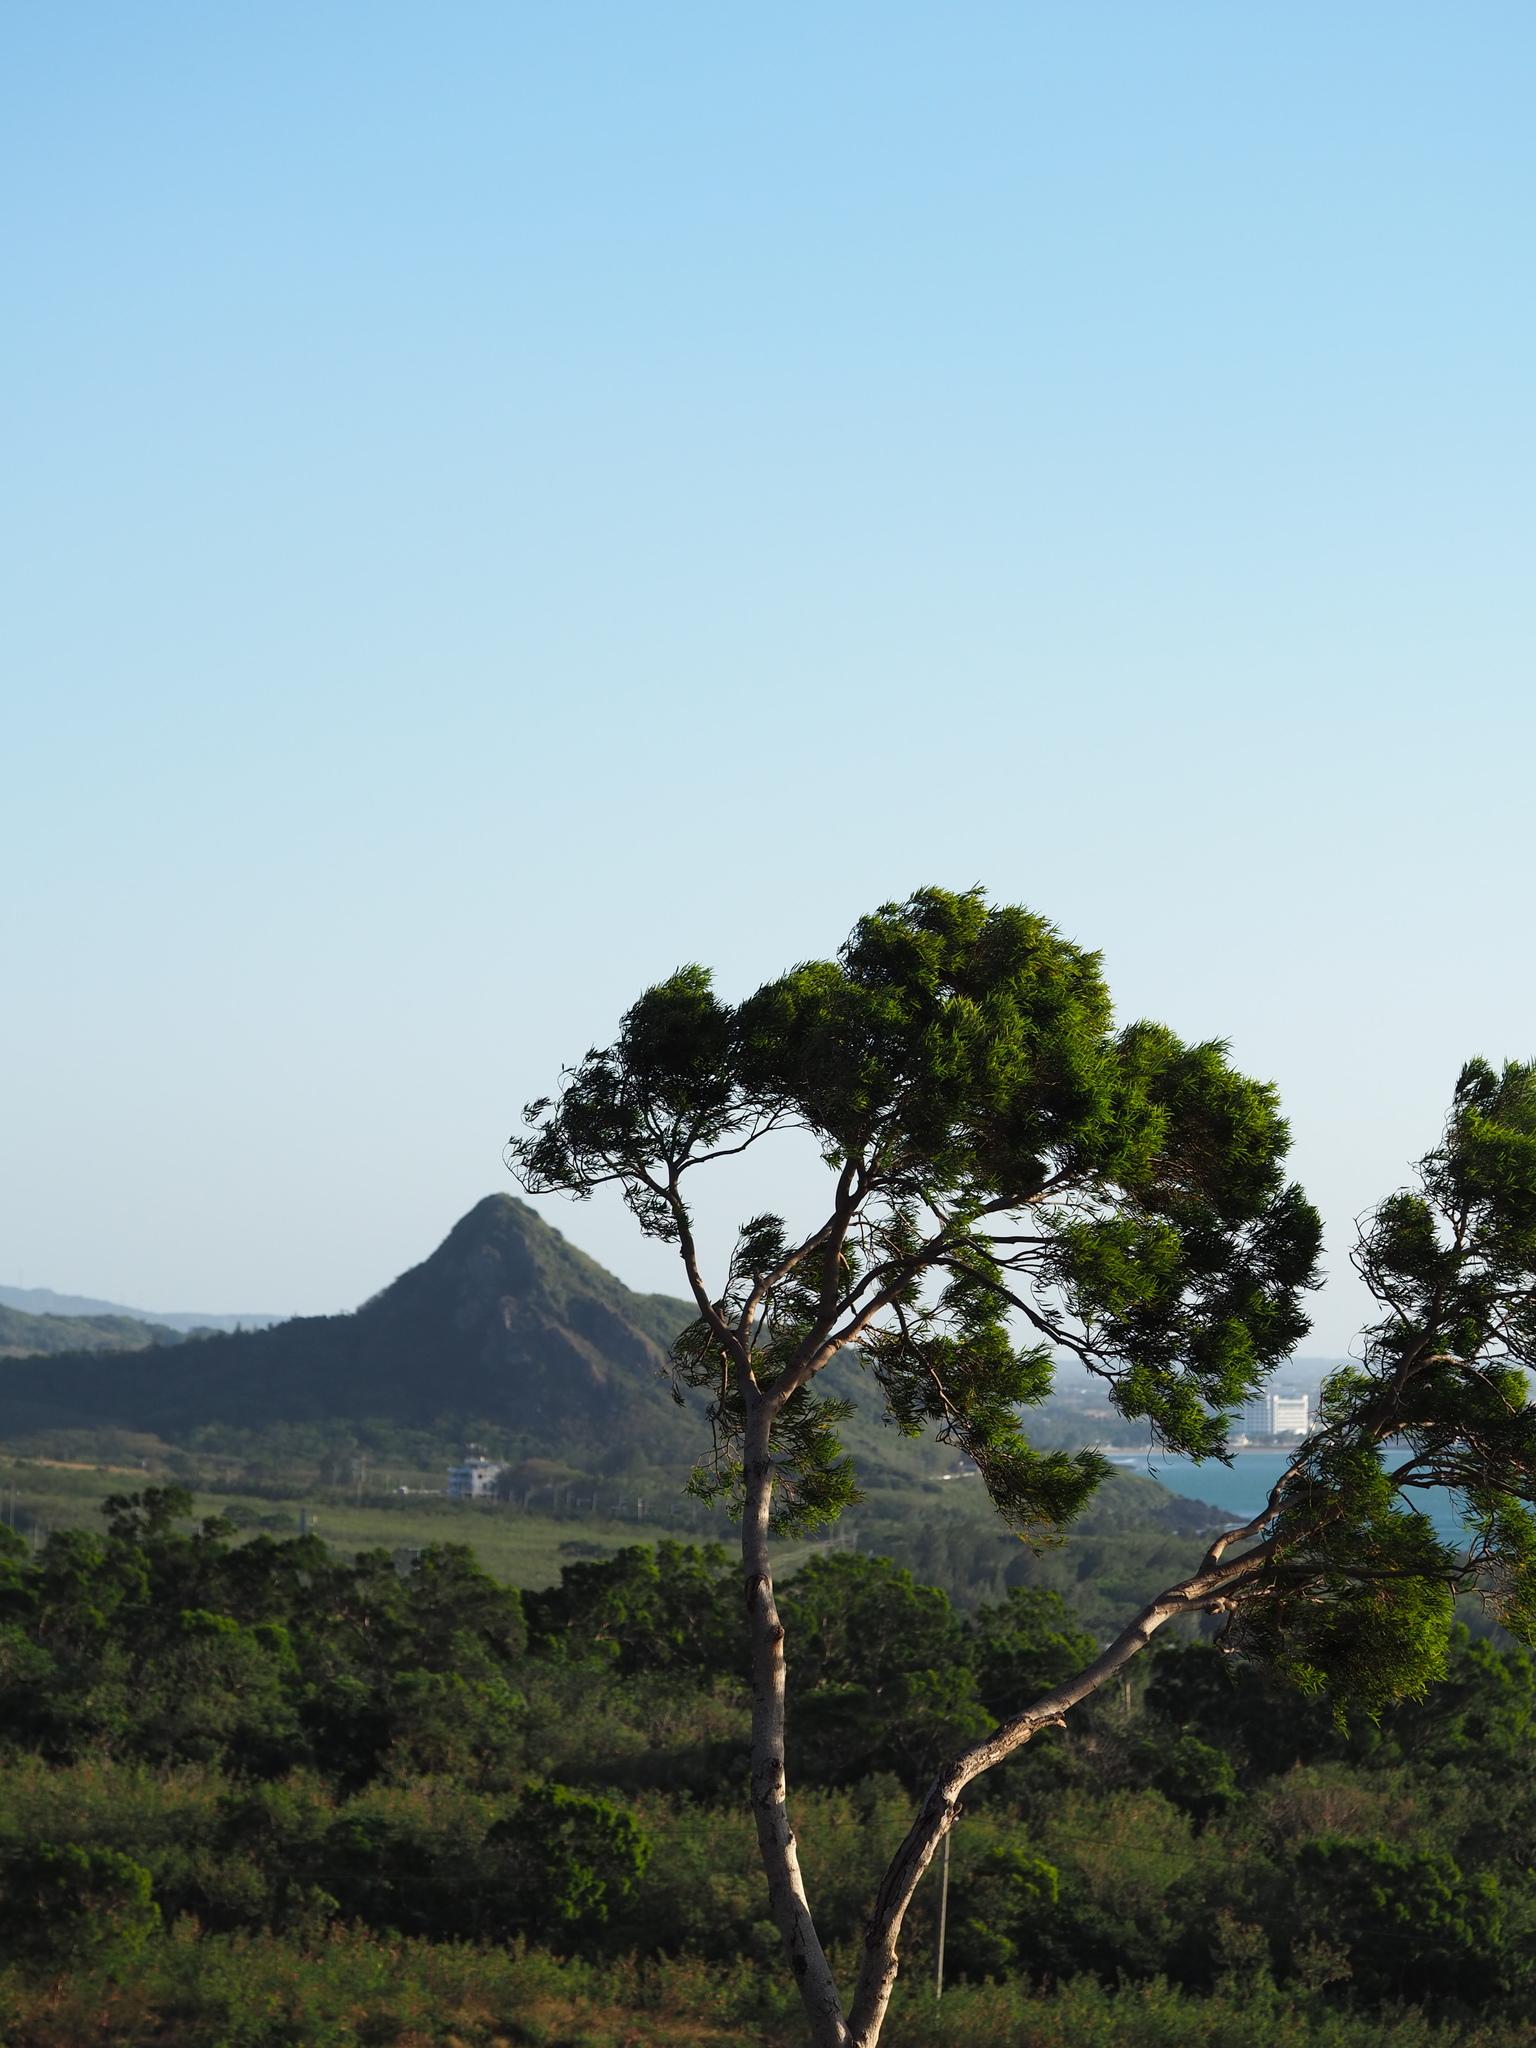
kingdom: Plantae
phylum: Tracheophyta
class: Magnoliopsida
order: Fabales
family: Fabaceae
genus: Acacia
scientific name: Acacia confusa
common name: Formosan koa
